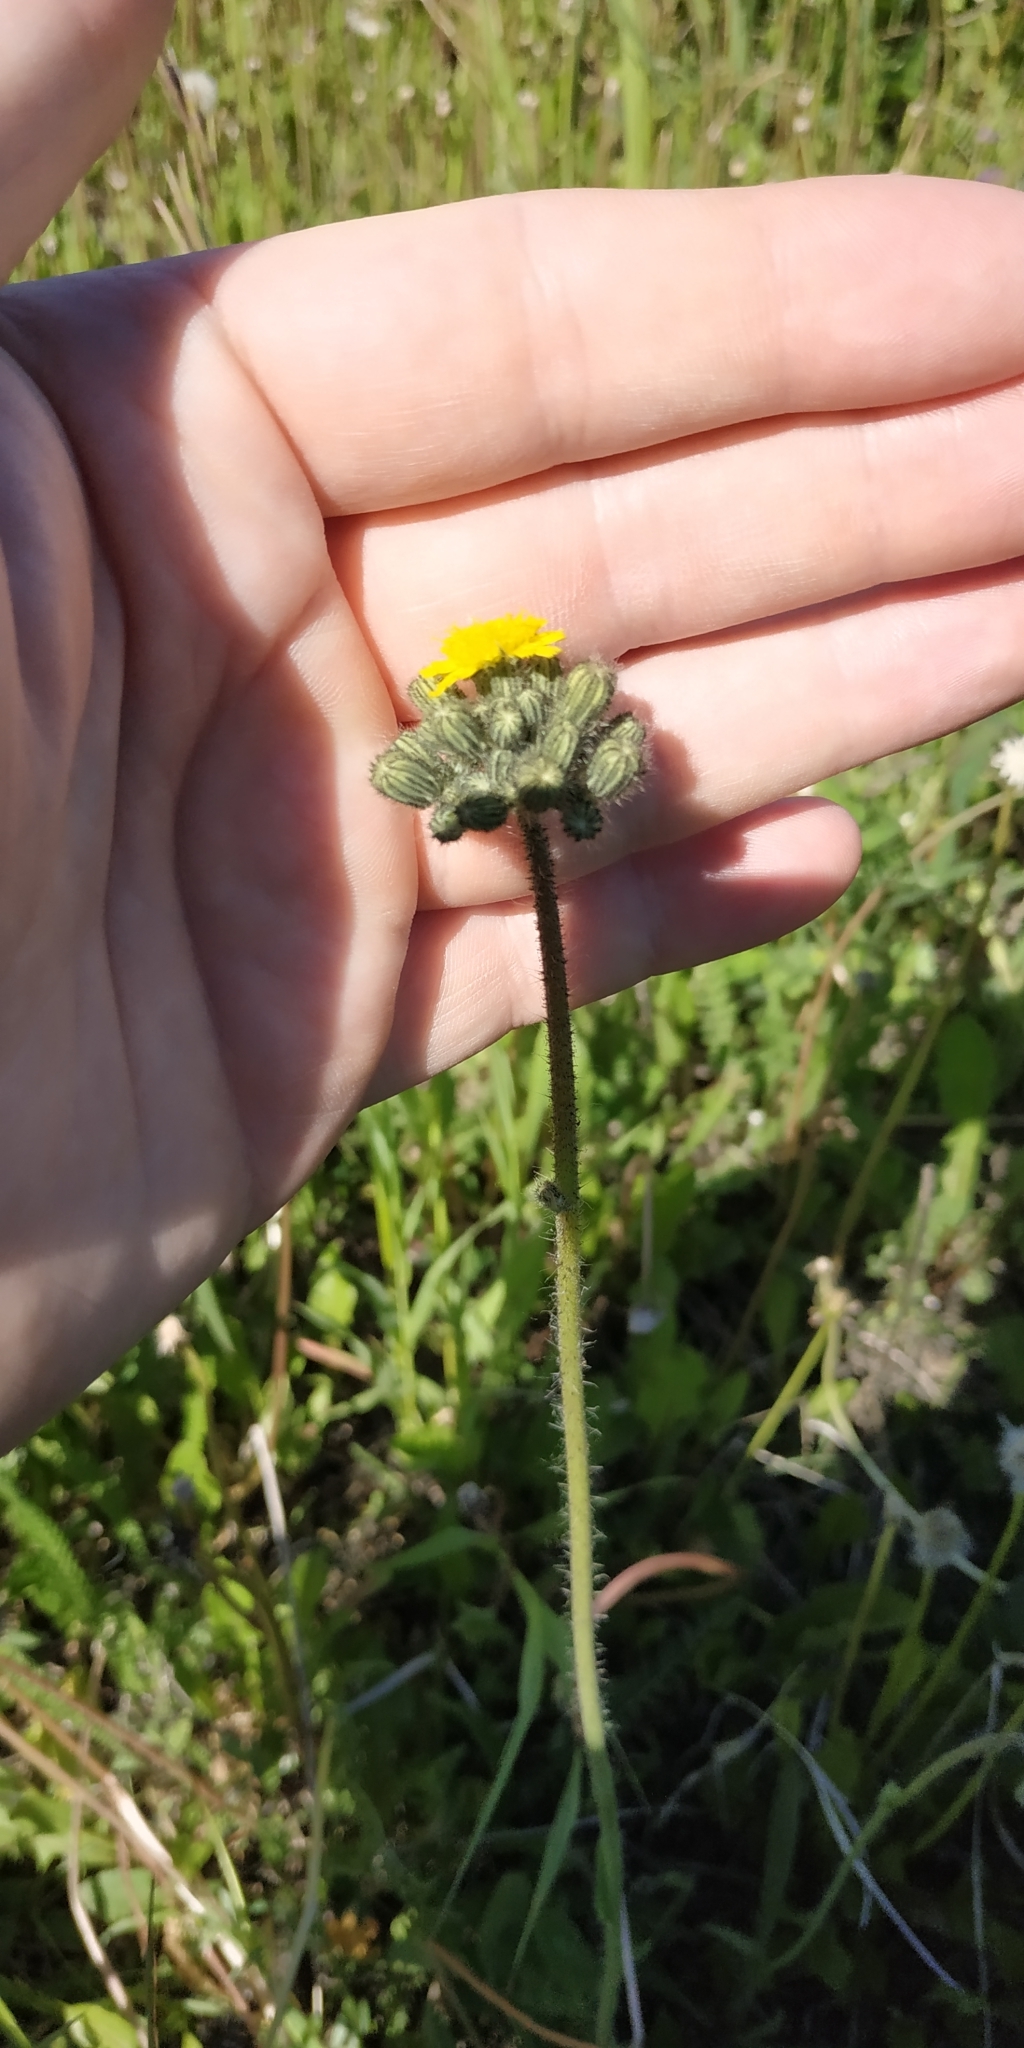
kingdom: Plantae
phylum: Tracheophyta
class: Magnoliopsida
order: Asterales
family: Asteraceae
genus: Pilosella
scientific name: Pilosella sulphurea
